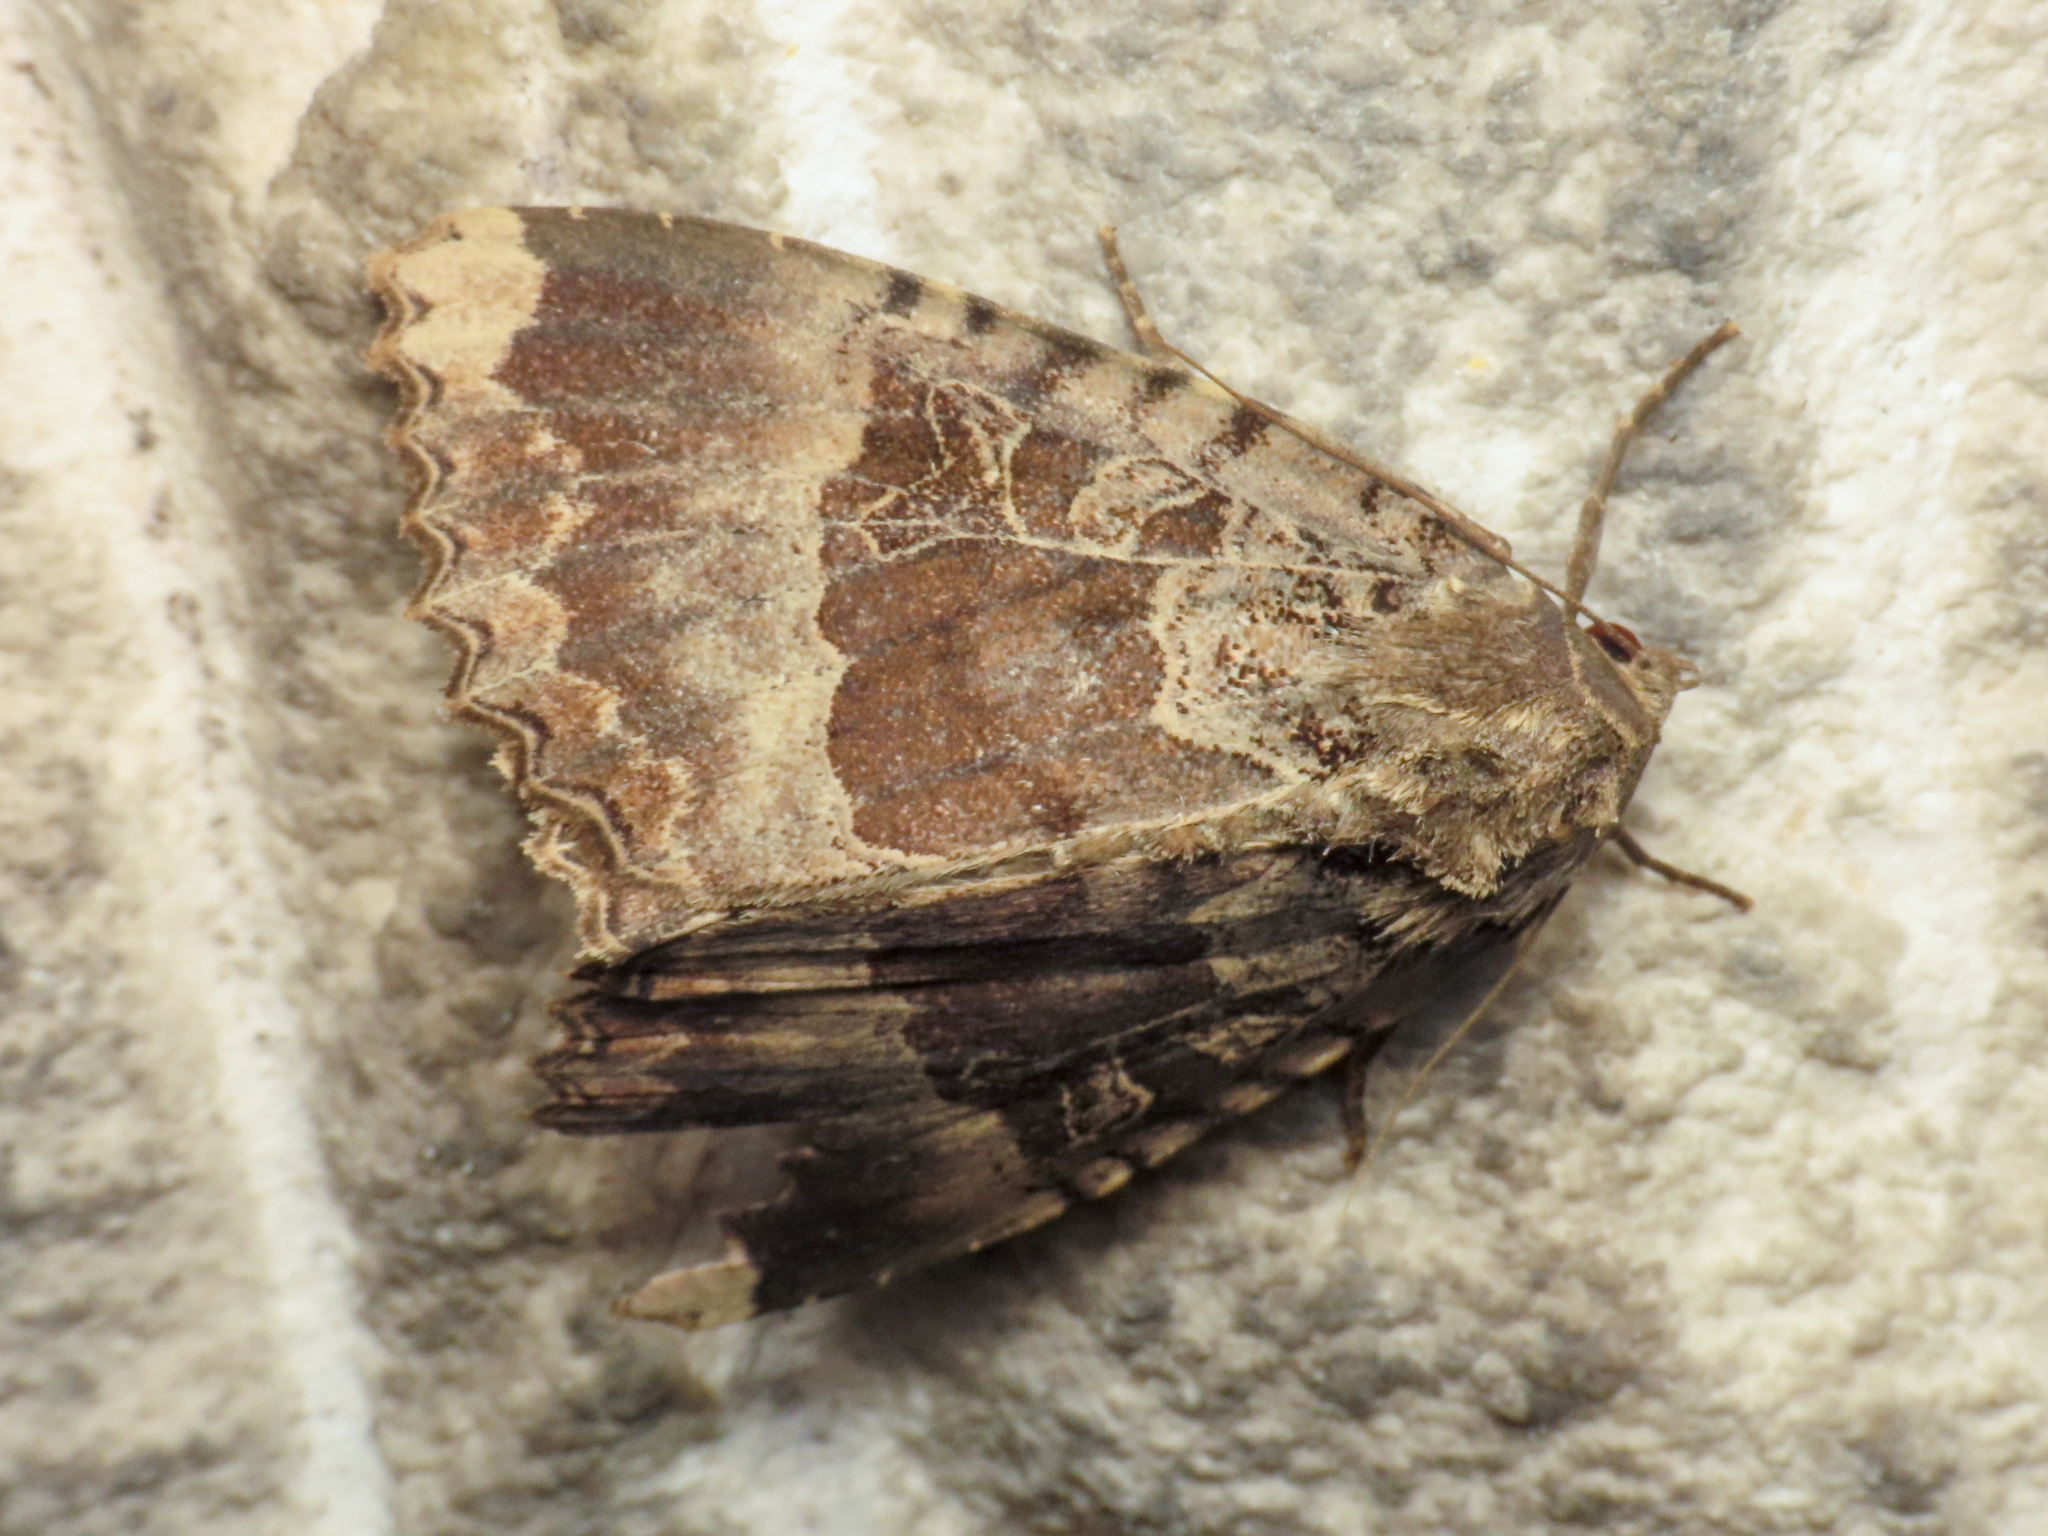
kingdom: Animalia
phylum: Arthropoda
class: Insecta
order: Lepidoptera
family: Noctuidae
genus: Mormo
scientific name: Mormo maura
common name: Old lady
